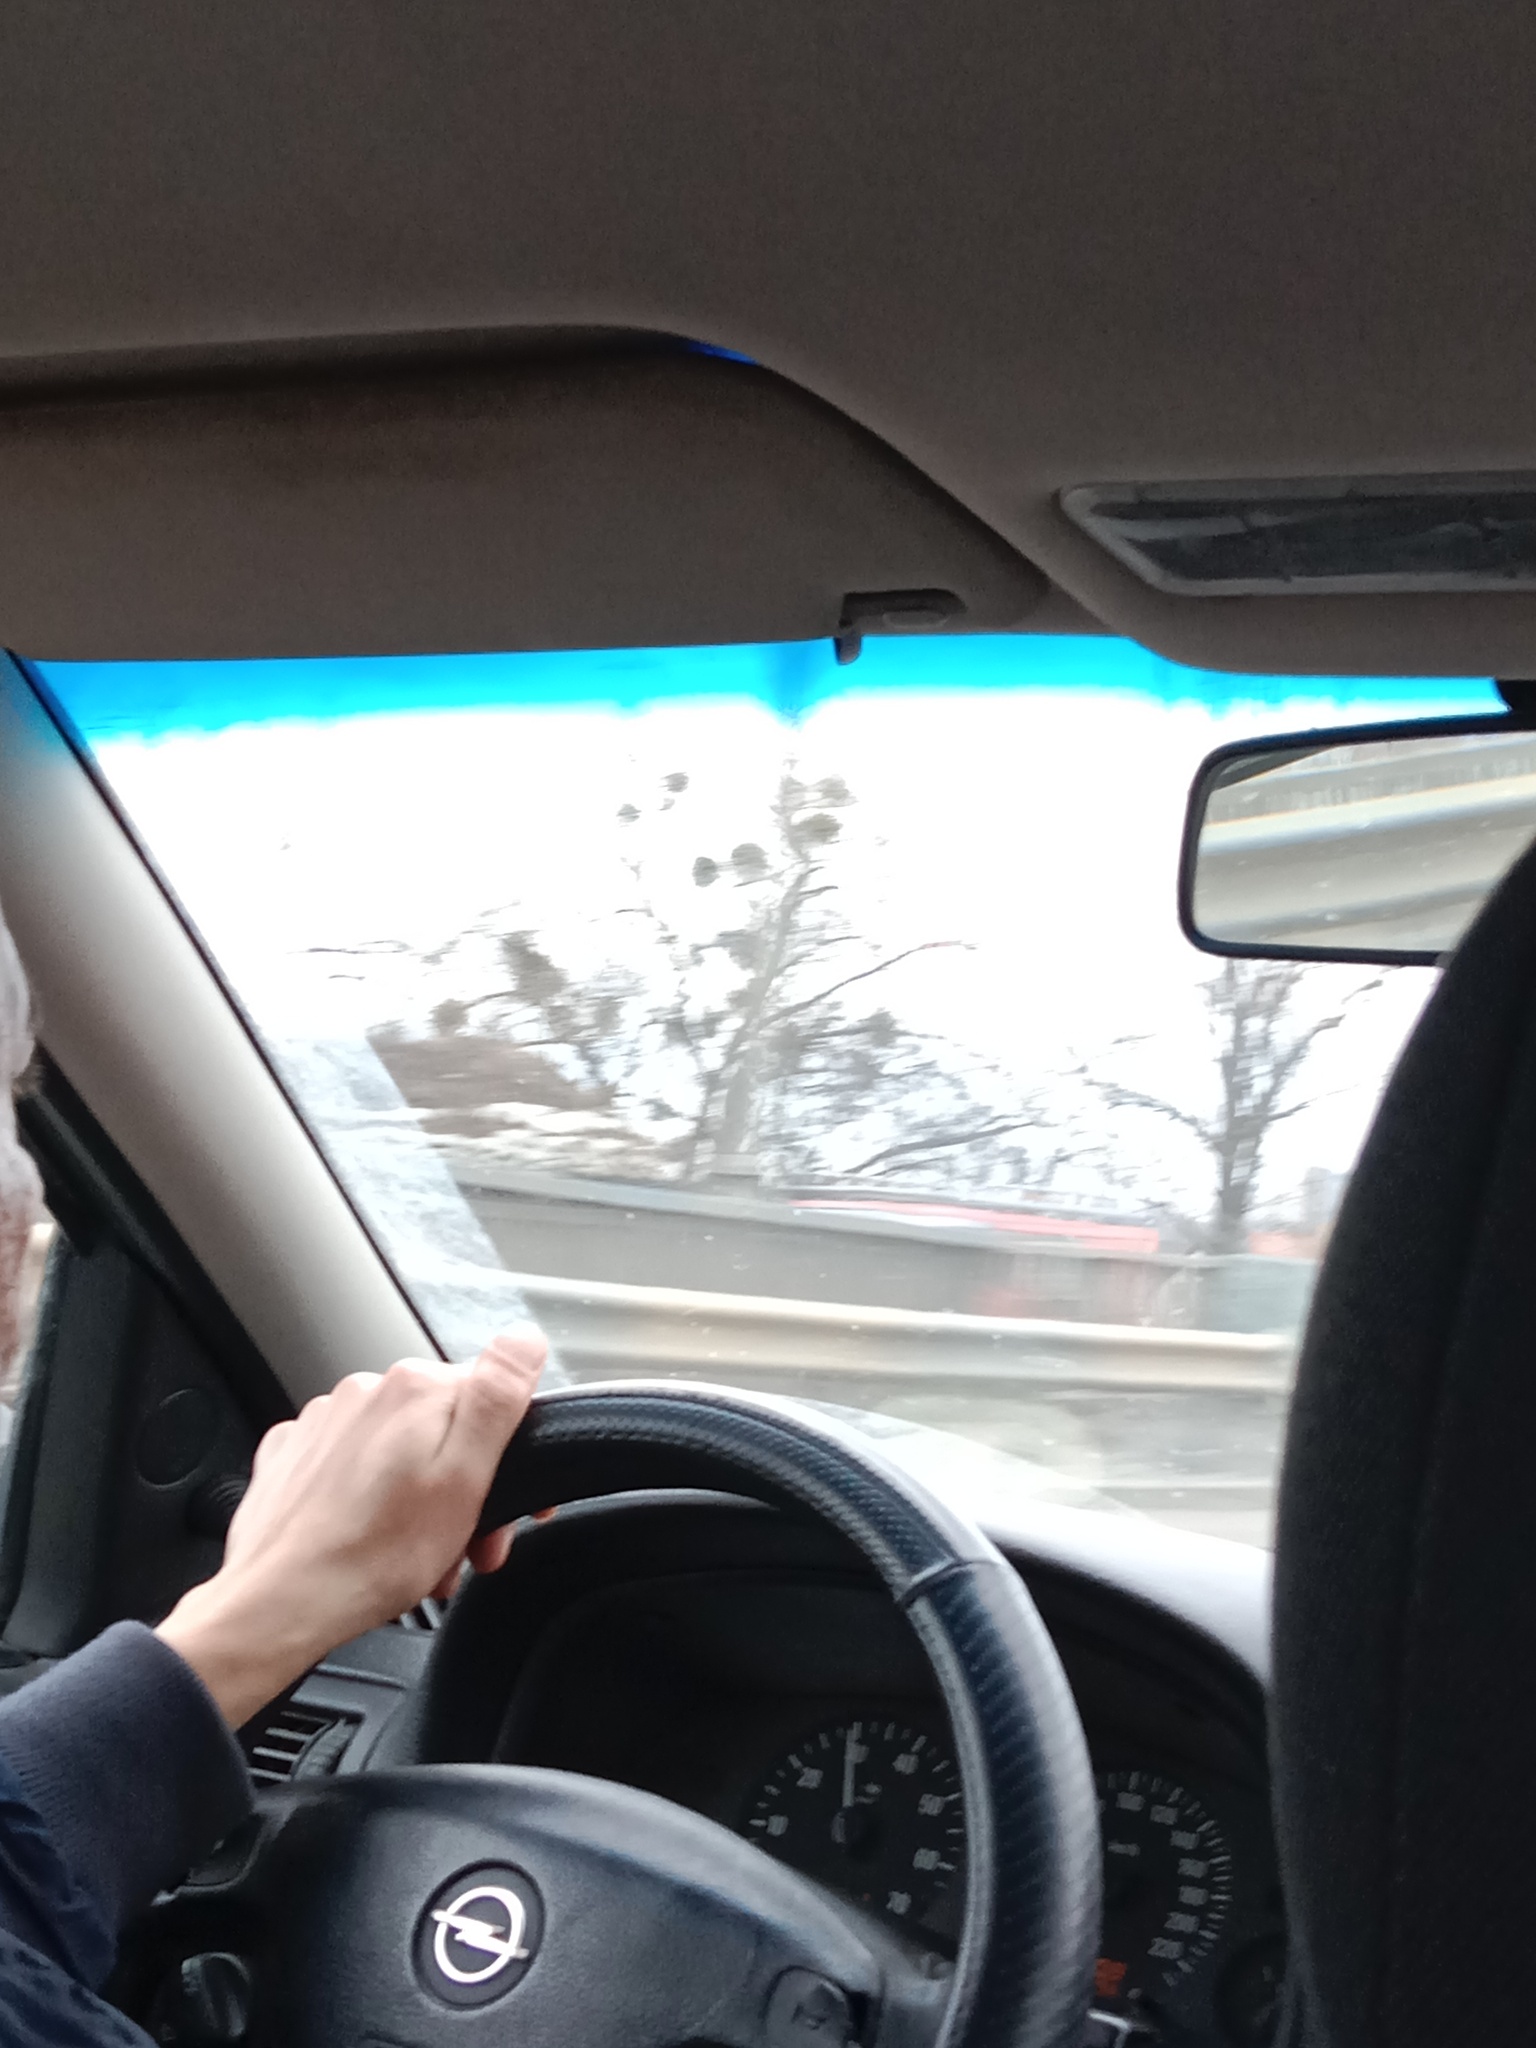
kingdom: Plantae
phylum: Tracheophyta
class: Magnoliopsida
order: Santalales
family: Viscaceae
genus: Viscum
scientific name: Viscum album
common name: Mistletoe
